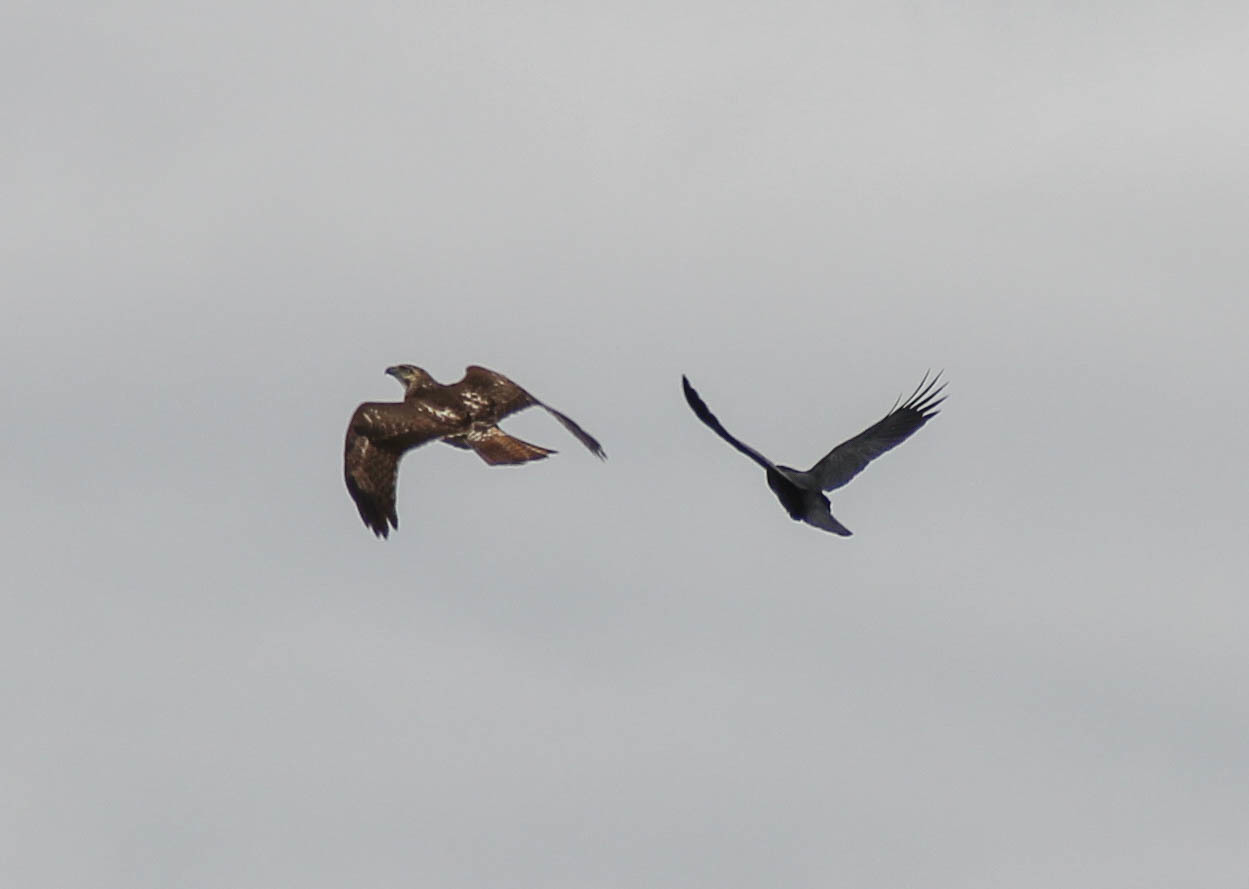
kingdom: Animalia
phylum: Chordata
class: Aves
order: Accipitriformes
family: Accipitridae
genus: Buteo
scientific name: Buteo jamaicensis
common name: Red-tailed hawk
